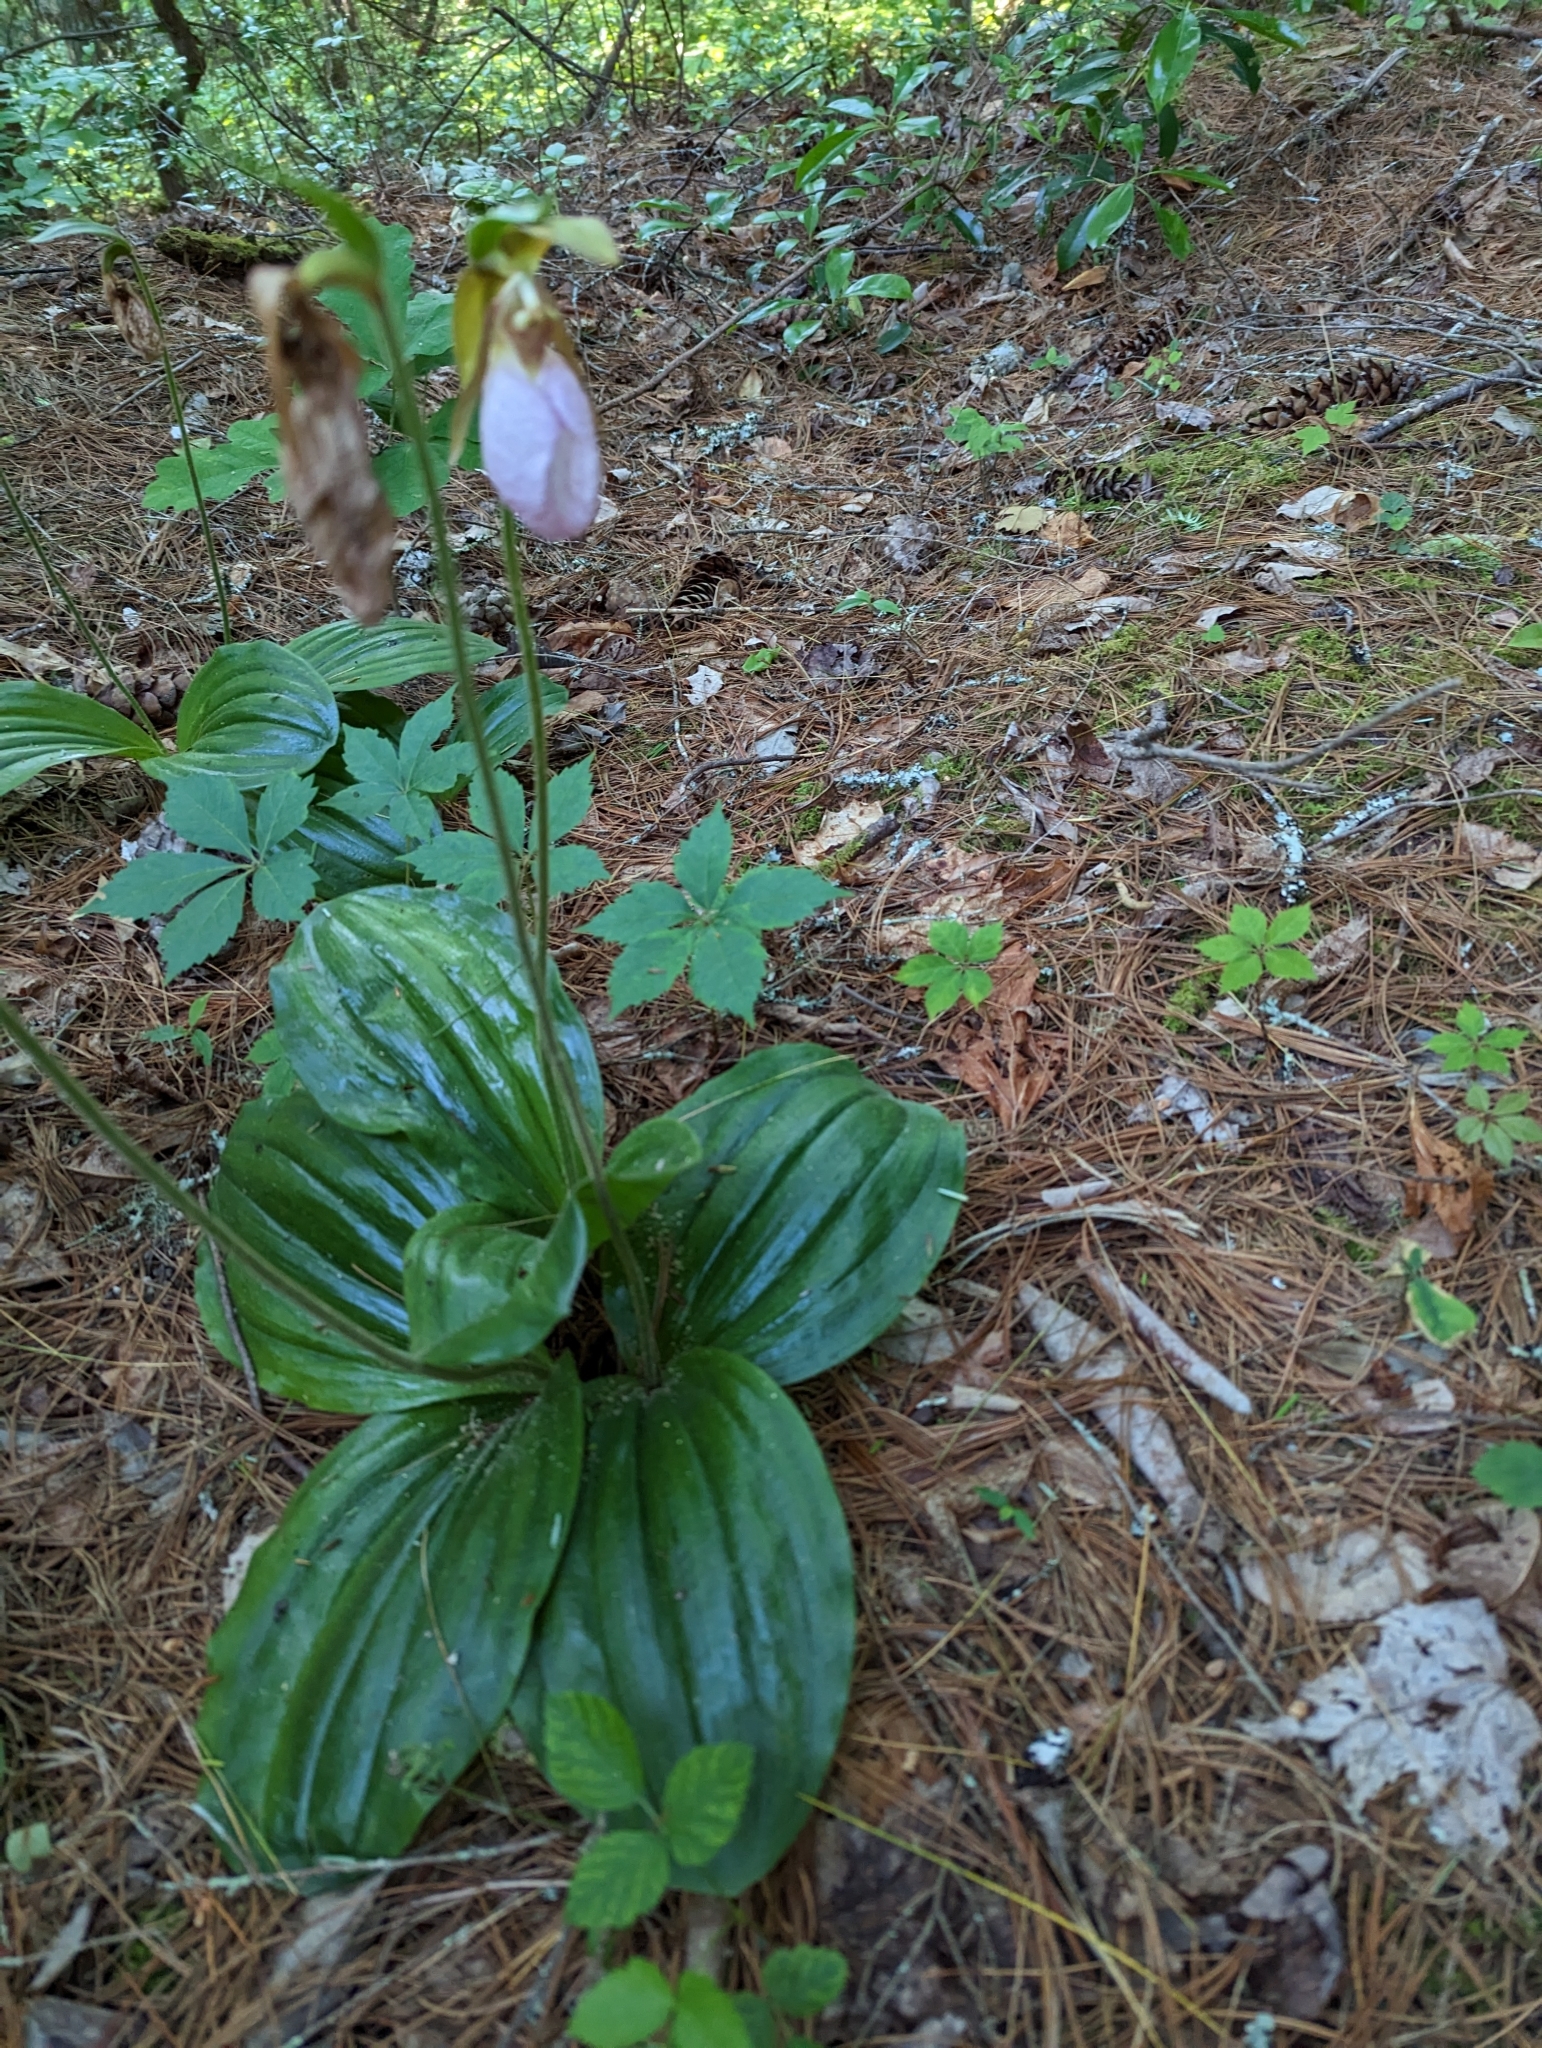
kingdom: Plantae
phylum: Tracheophyta
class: Liliopsida
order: Asparagales
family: Orchidaceae
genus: Cypripedium
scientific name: Cypripedium acaule
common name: Pink lady's-slipper
